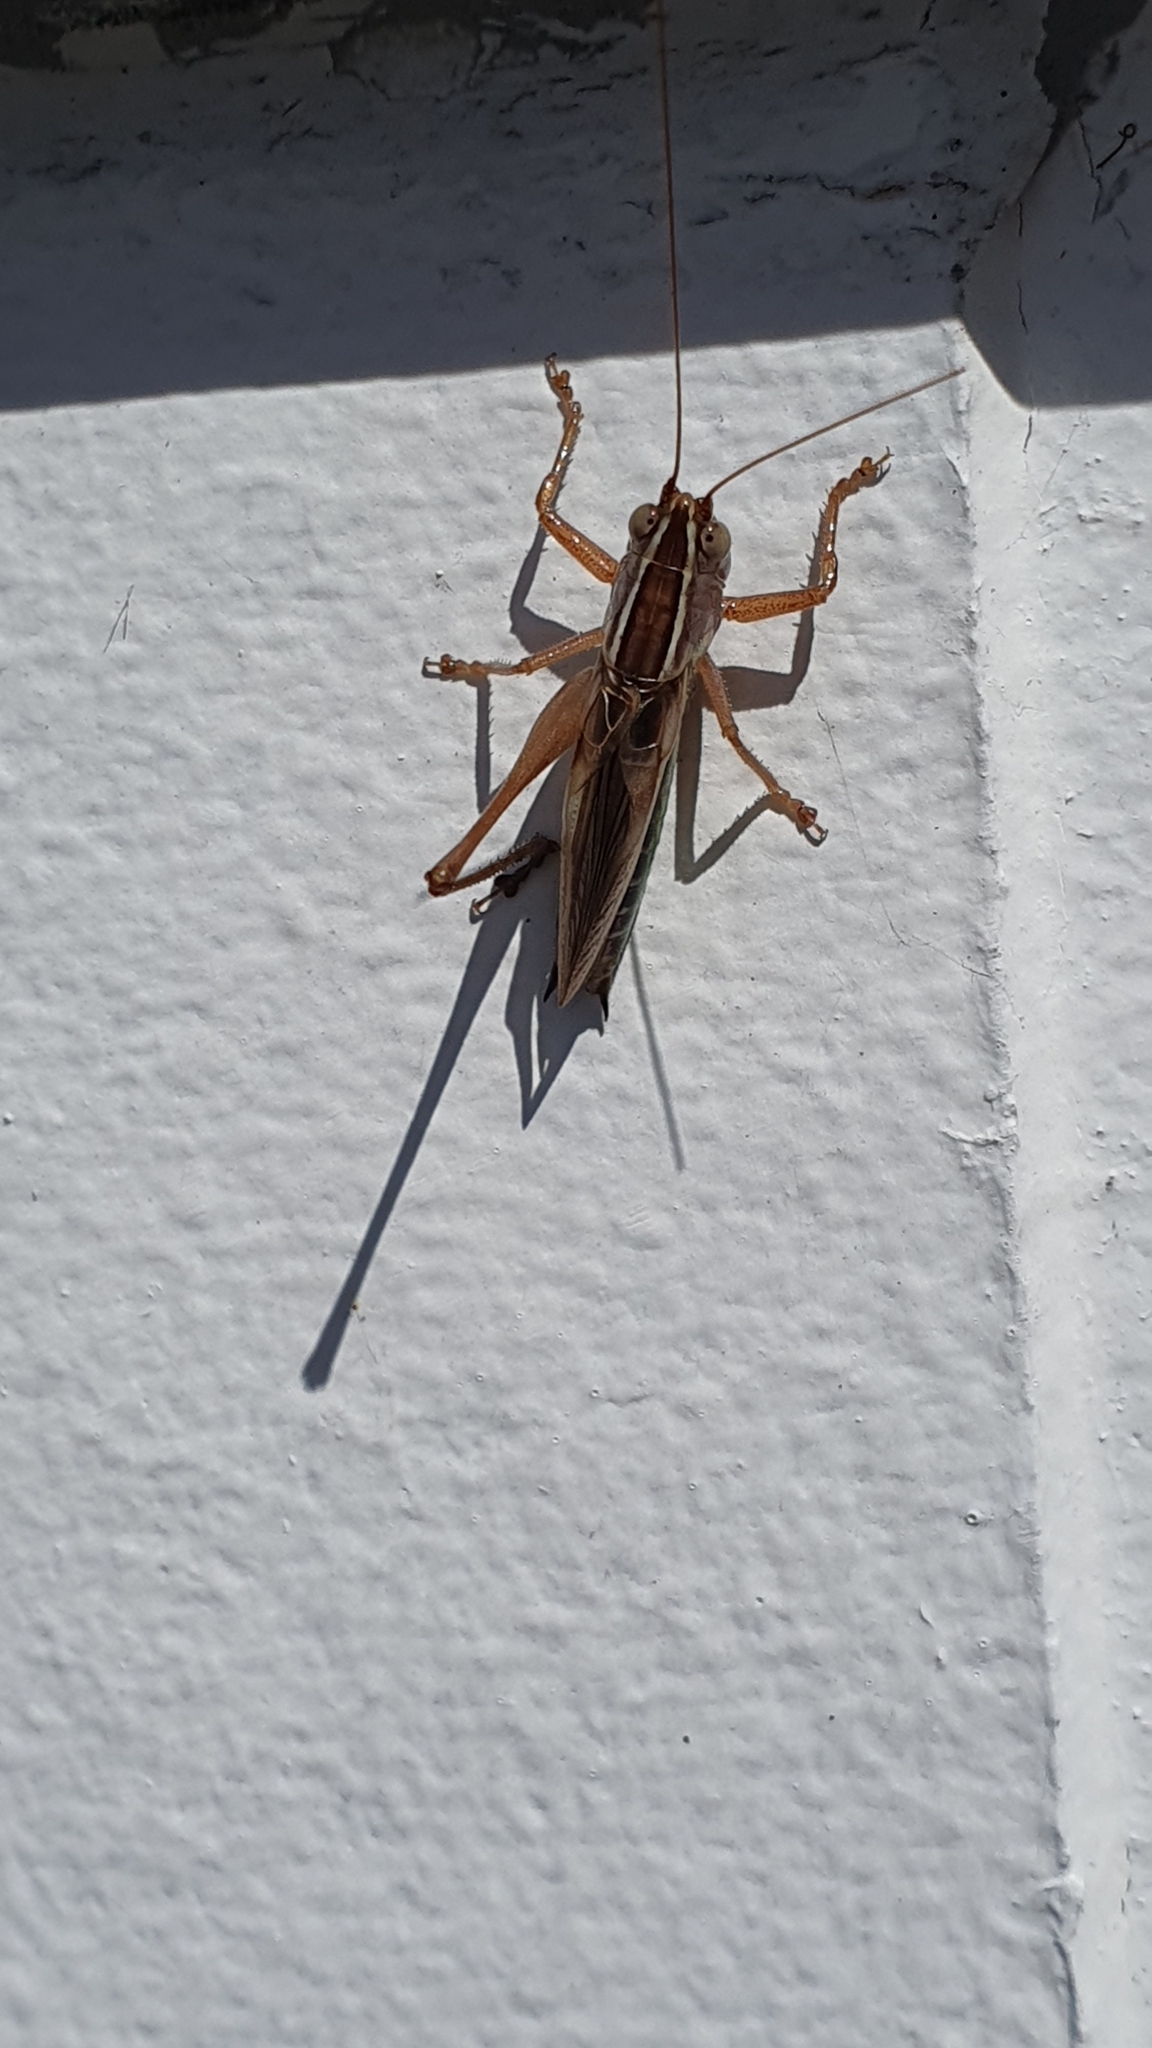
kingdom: Animalia
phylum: Arthropoda
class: Insecta
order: Orthoptera
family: Tettigoniidae
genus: Conocephalus
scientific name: Conocephalus albescens
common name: Whitish meadow katydid
